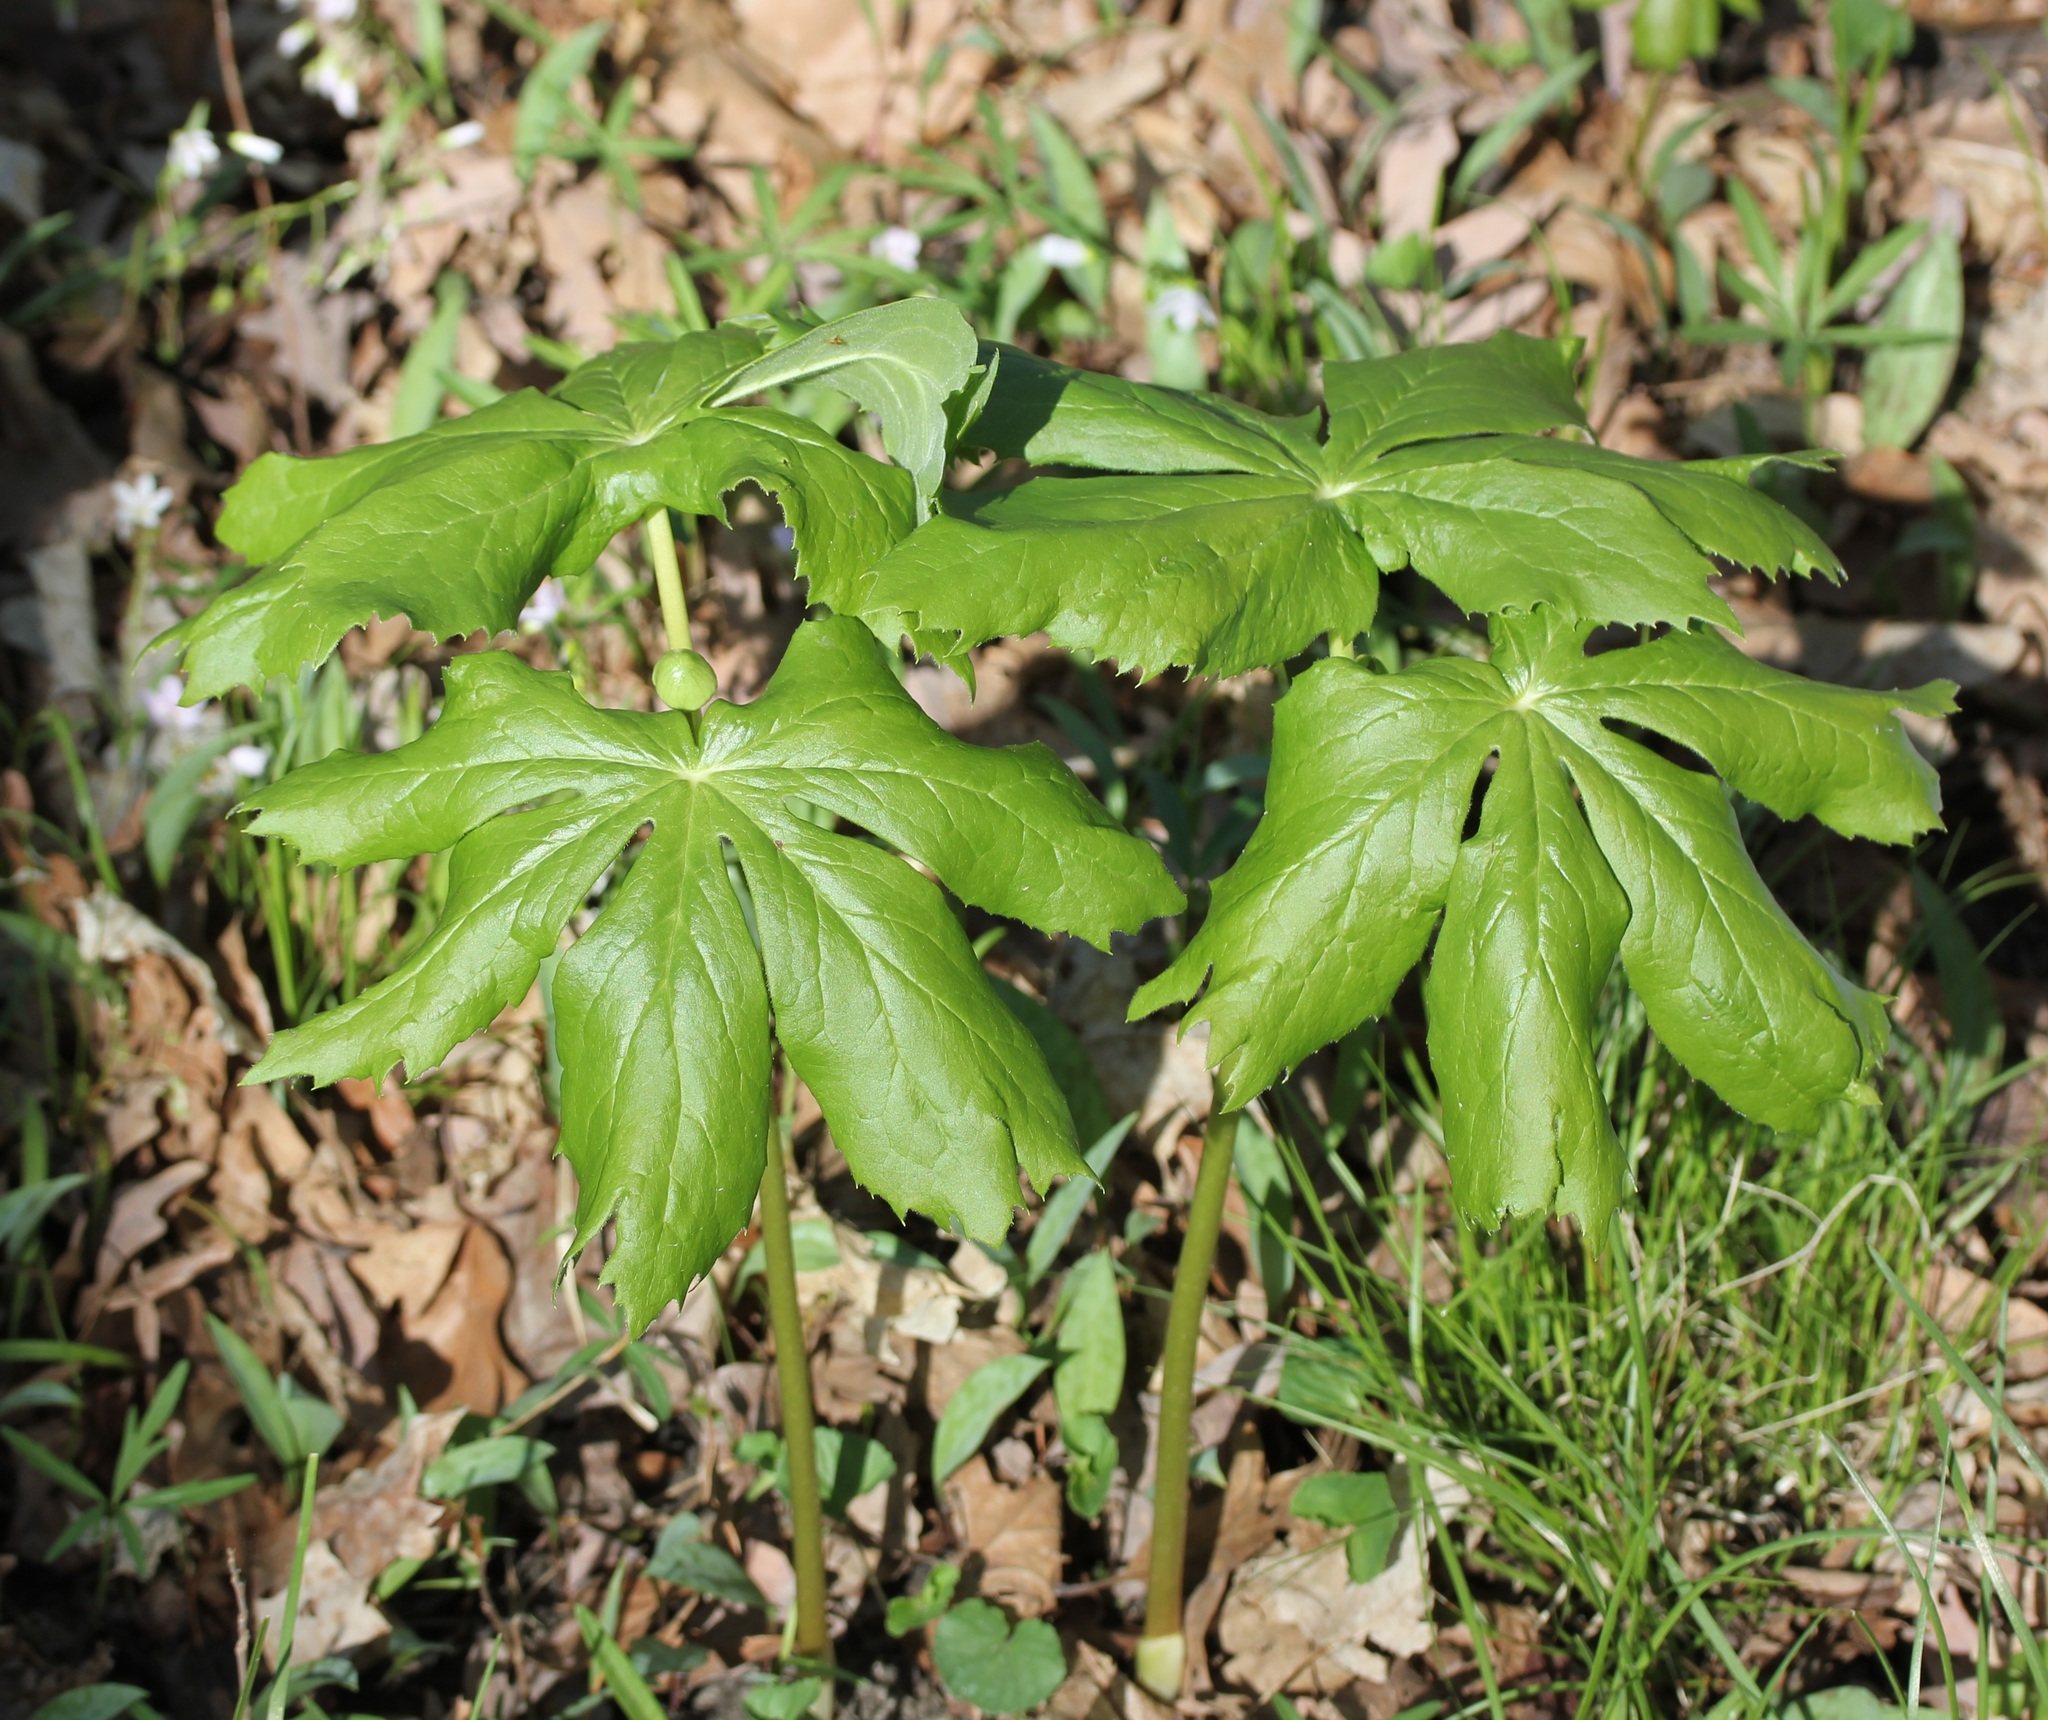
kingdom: Plantae
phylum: Tracheophyta
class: Magnoliopsida
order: Ranunculales
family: Berberidaceae
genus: Podophyllum
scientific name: Podophyllum peltatum
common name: Wild mandrake
